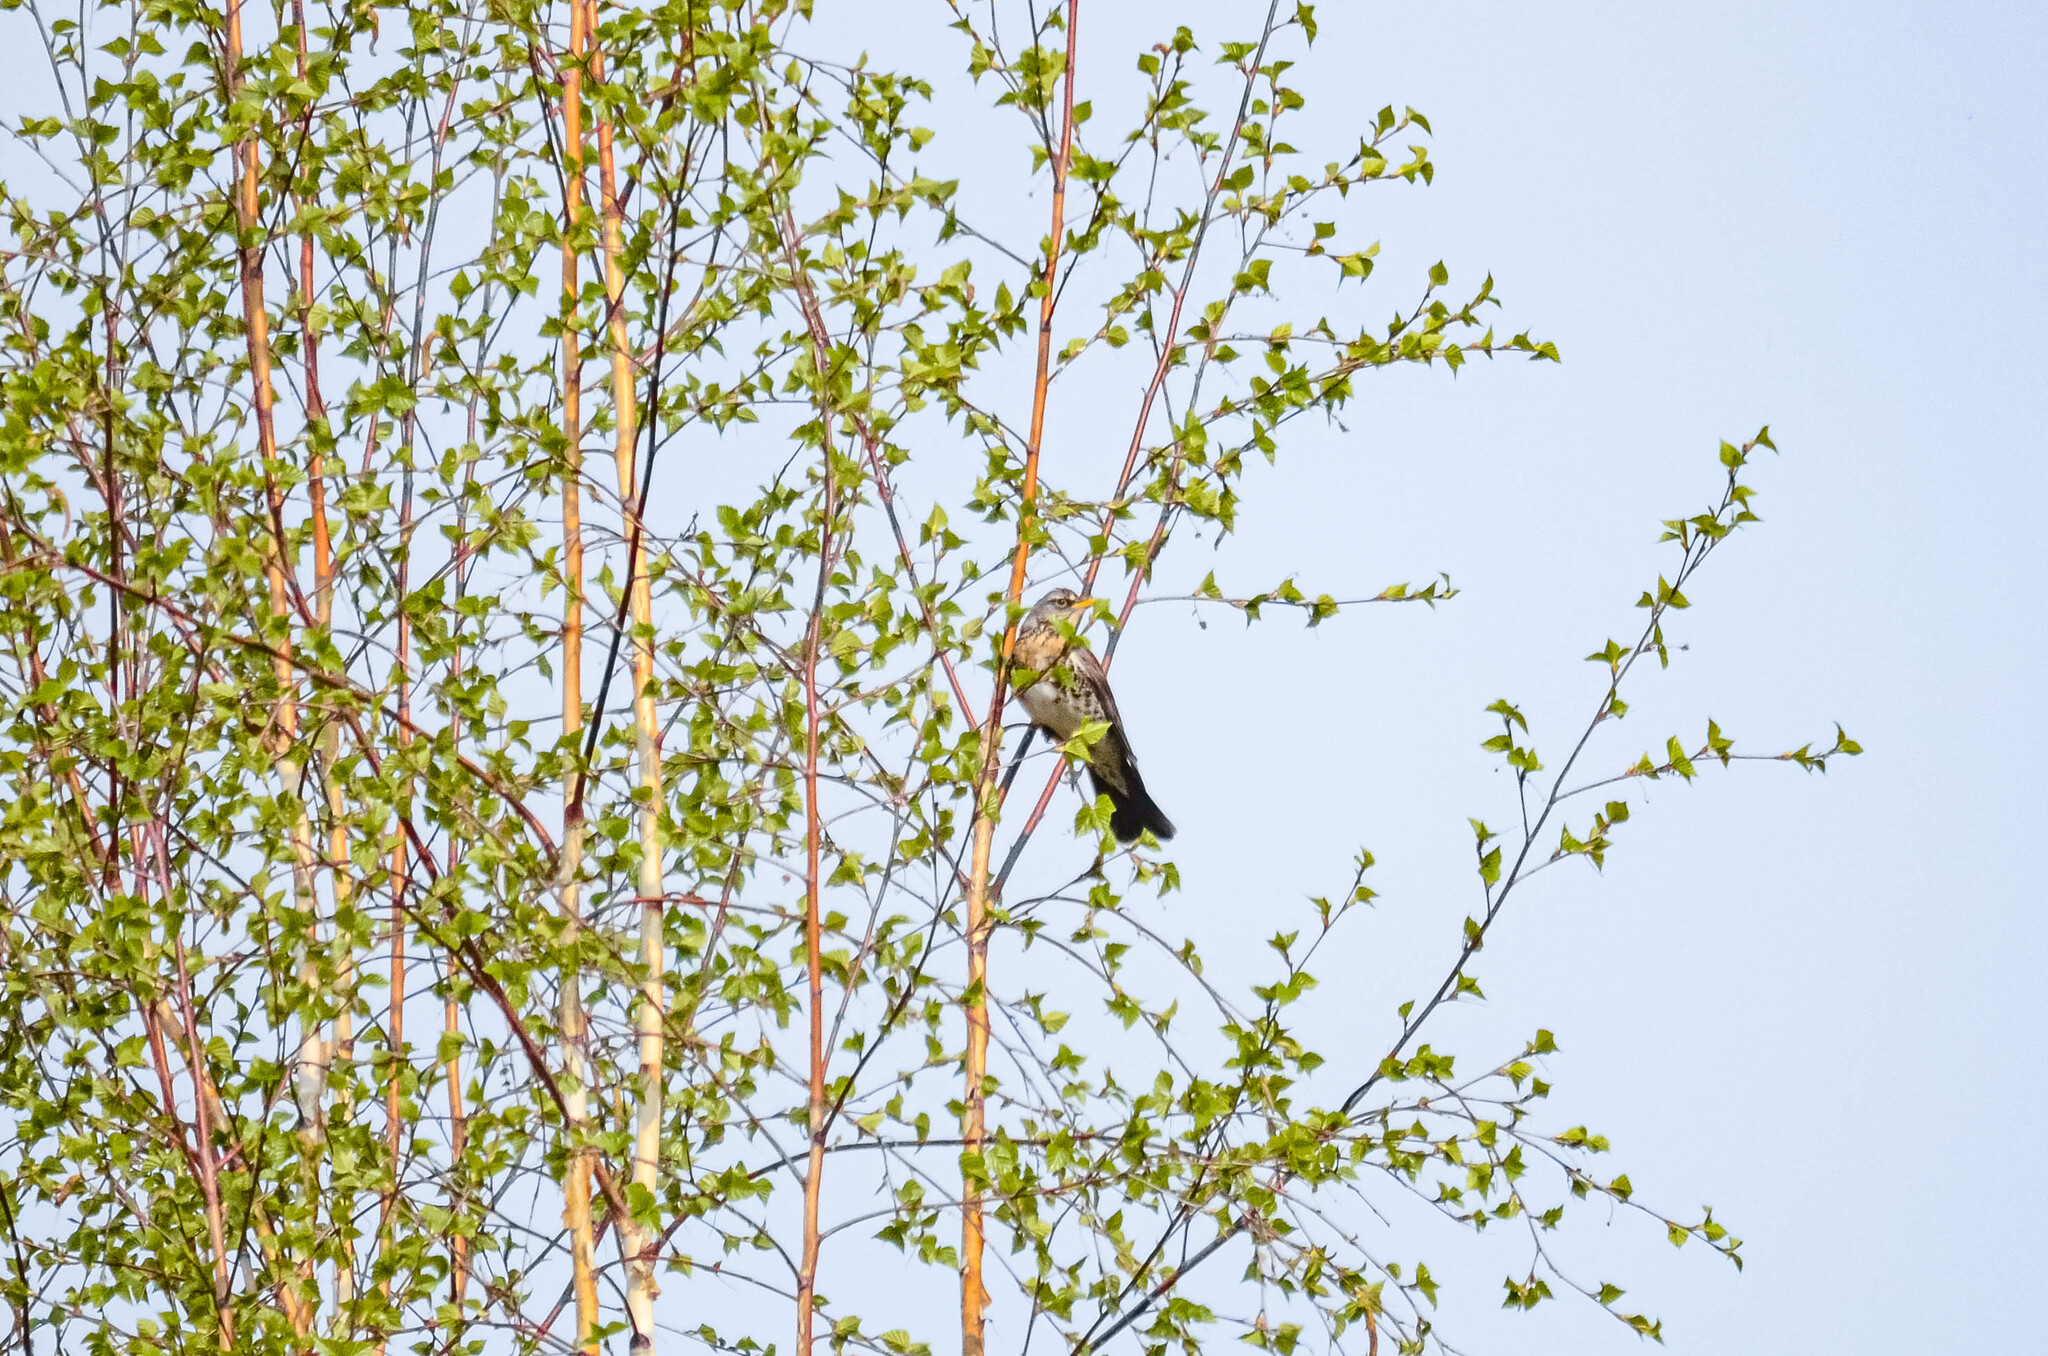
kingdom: Animalia
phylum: Chordata
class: Aves
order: Passeriformes
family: Turdidae
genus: Turdus
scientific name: Turdus pilaris
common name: Fieldfare
